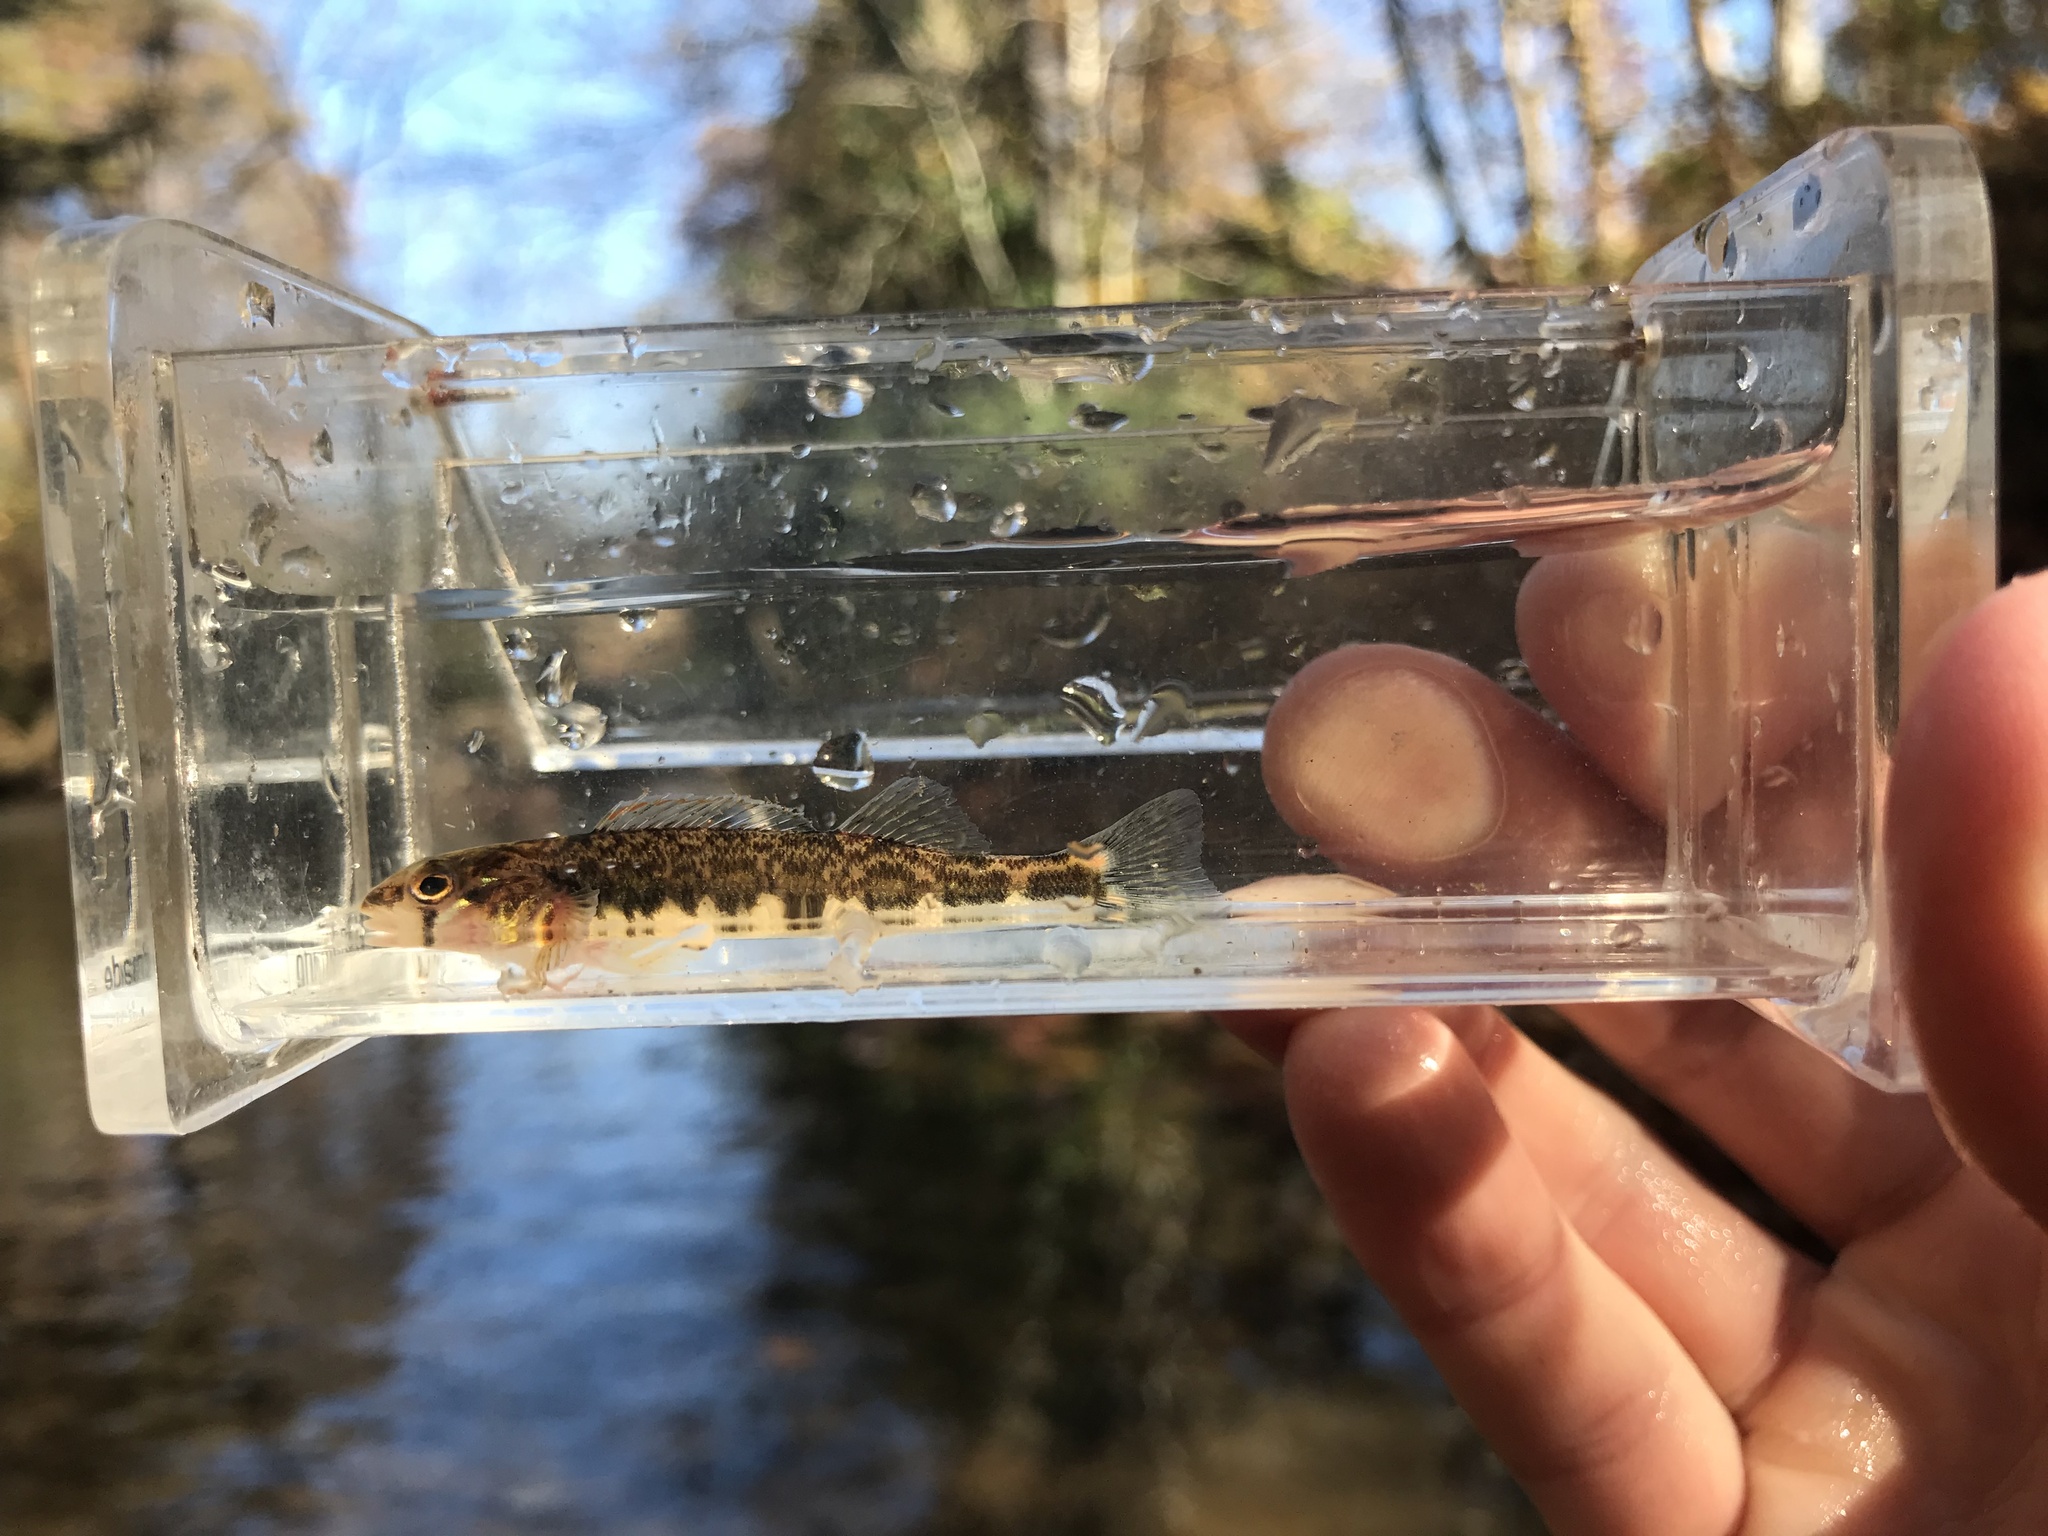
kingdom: Animalia
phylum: Chordata
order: Perciformes
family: Percidae
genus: Percina
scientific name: Percina evides
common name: Gilt darter
